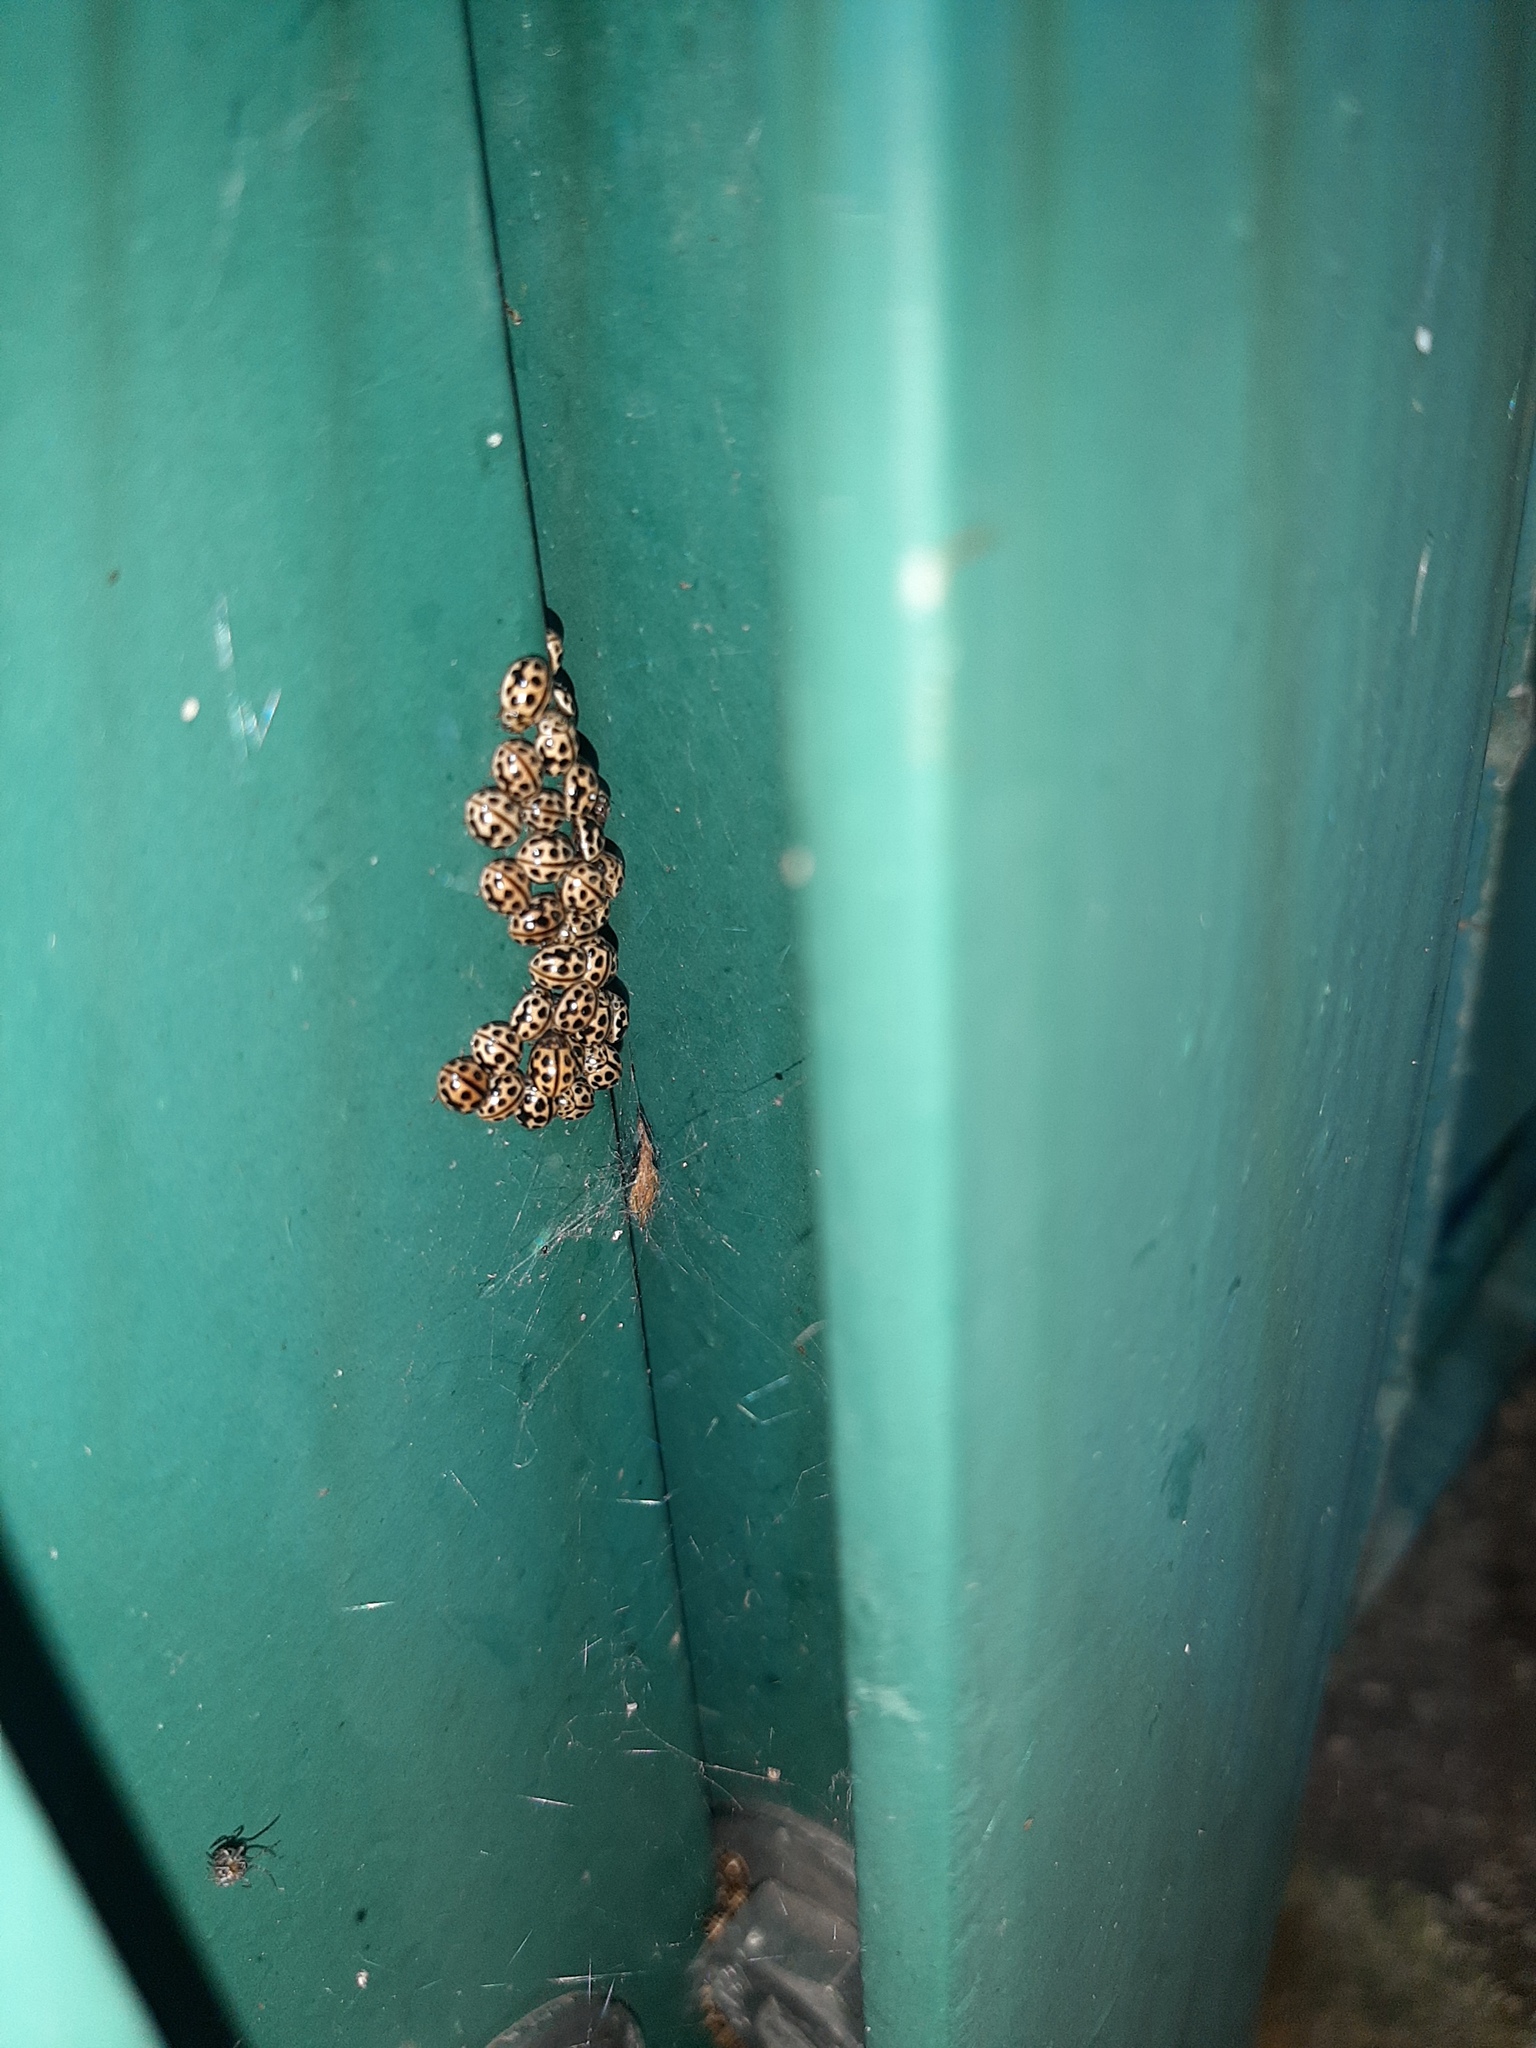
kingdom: Animalia
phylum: Arthropoda
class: Insecta
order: Coleoptera
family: Coccinellidae
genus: Tytthaspis
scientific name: Tytthaspis sedecimpunctata
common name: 16-spot ladybird
